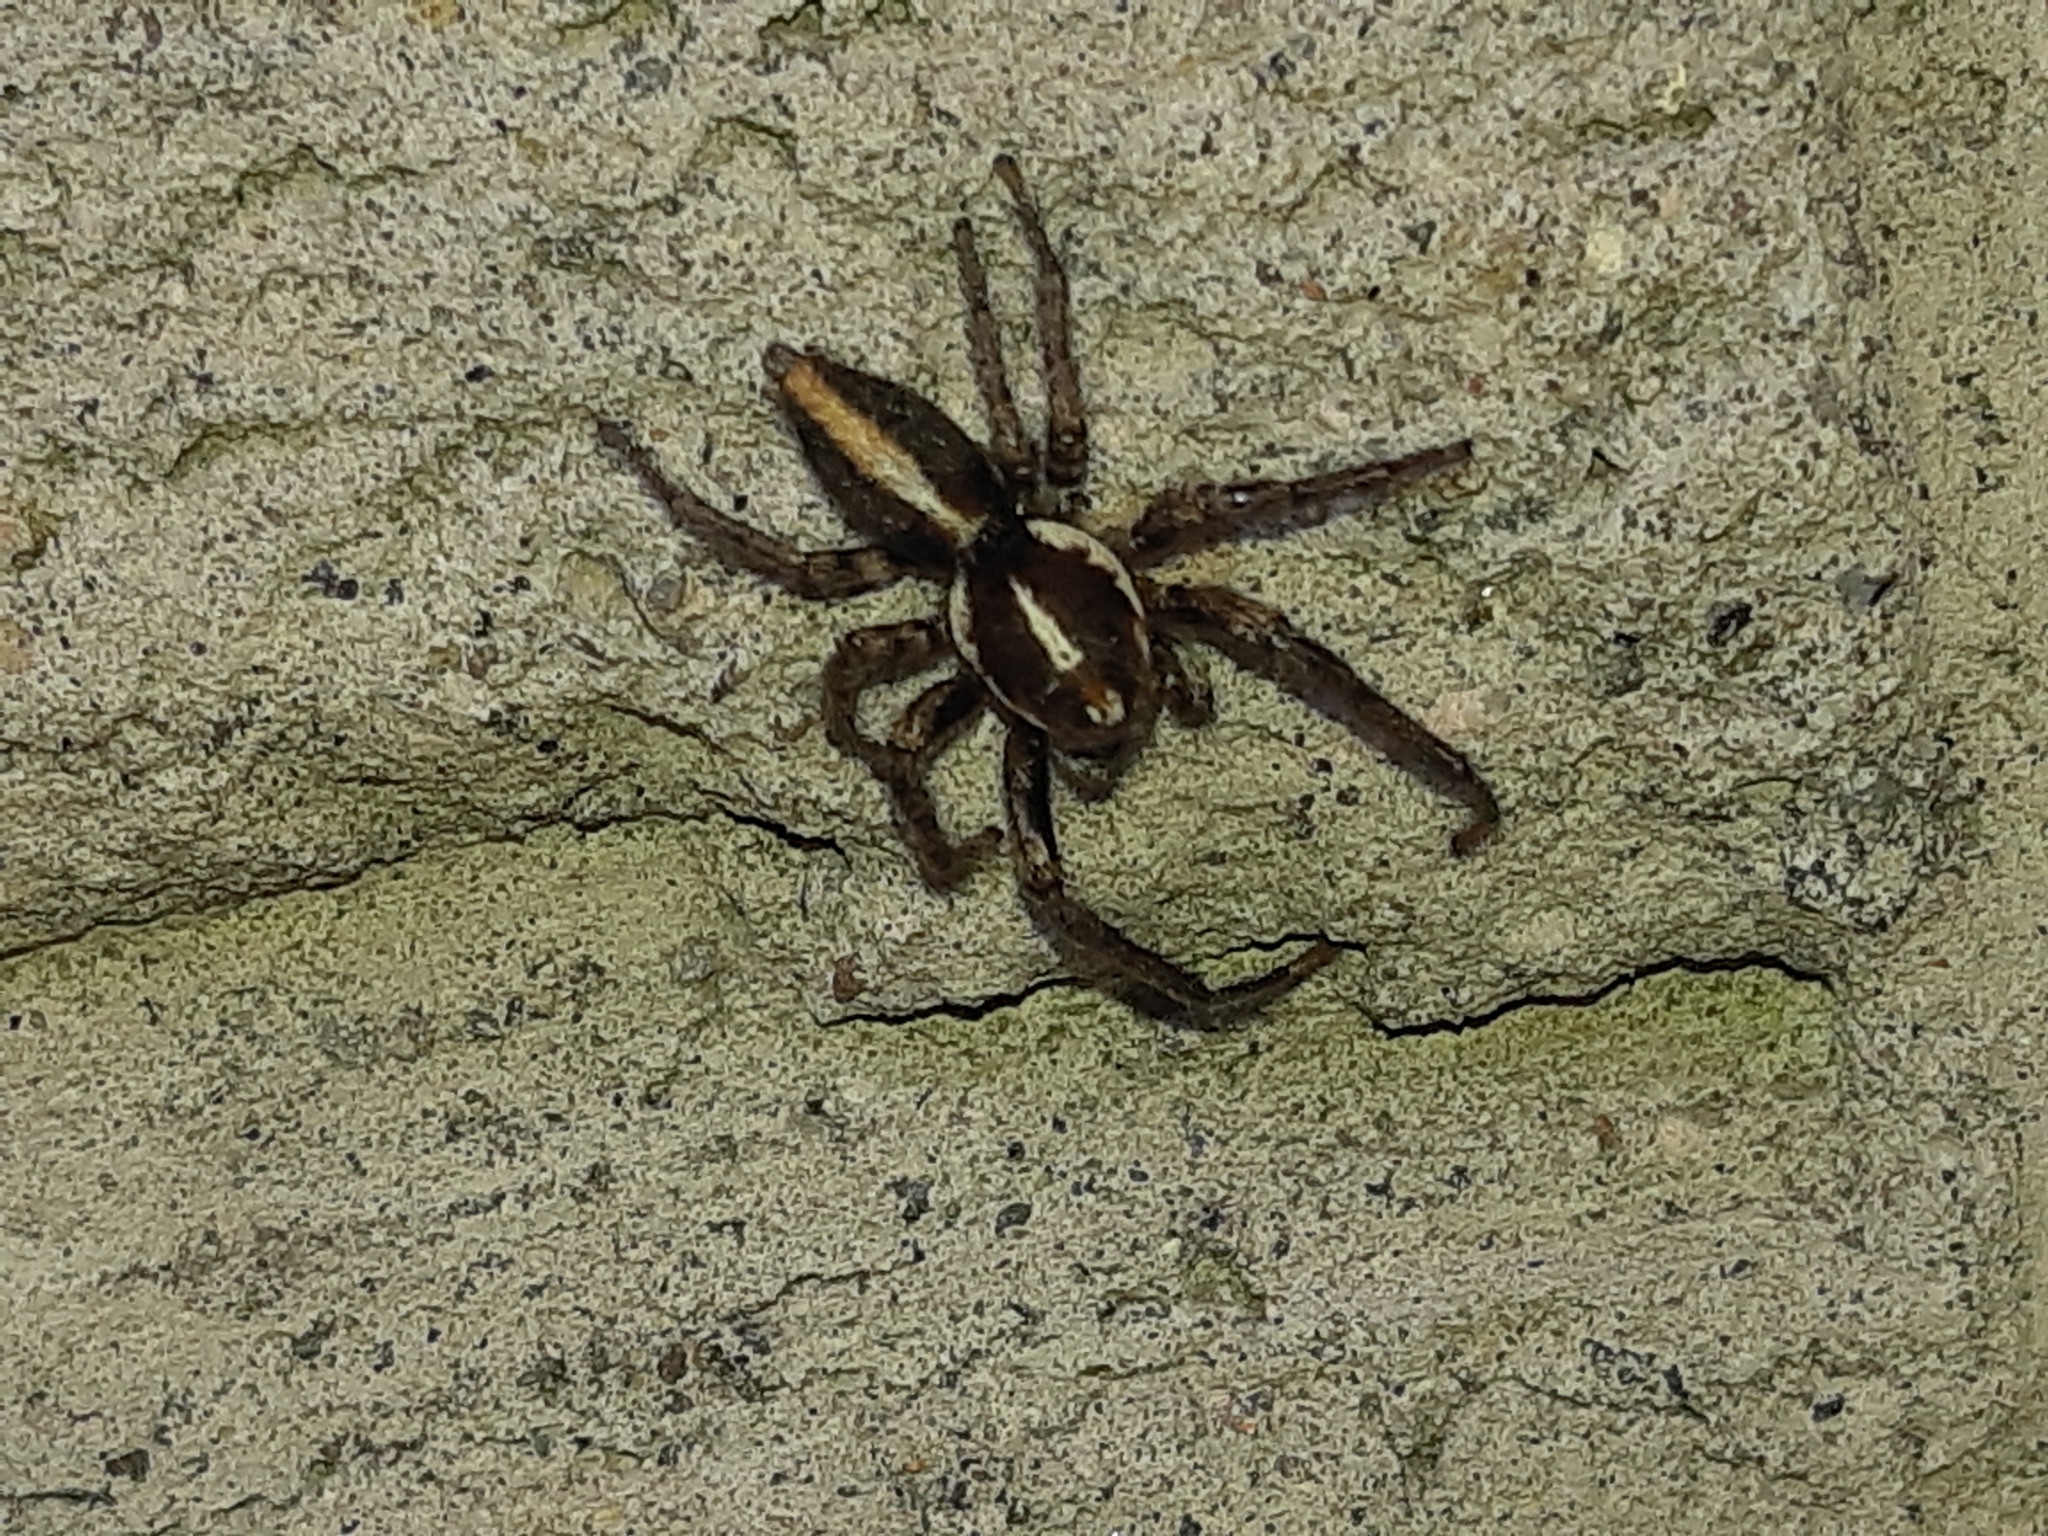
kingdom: Animalia
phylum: Arthropoda
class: Arachnida
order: Araneae
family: Salticidae
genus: Frigga
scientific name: Frigga crocuta
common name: Jumping spiders
